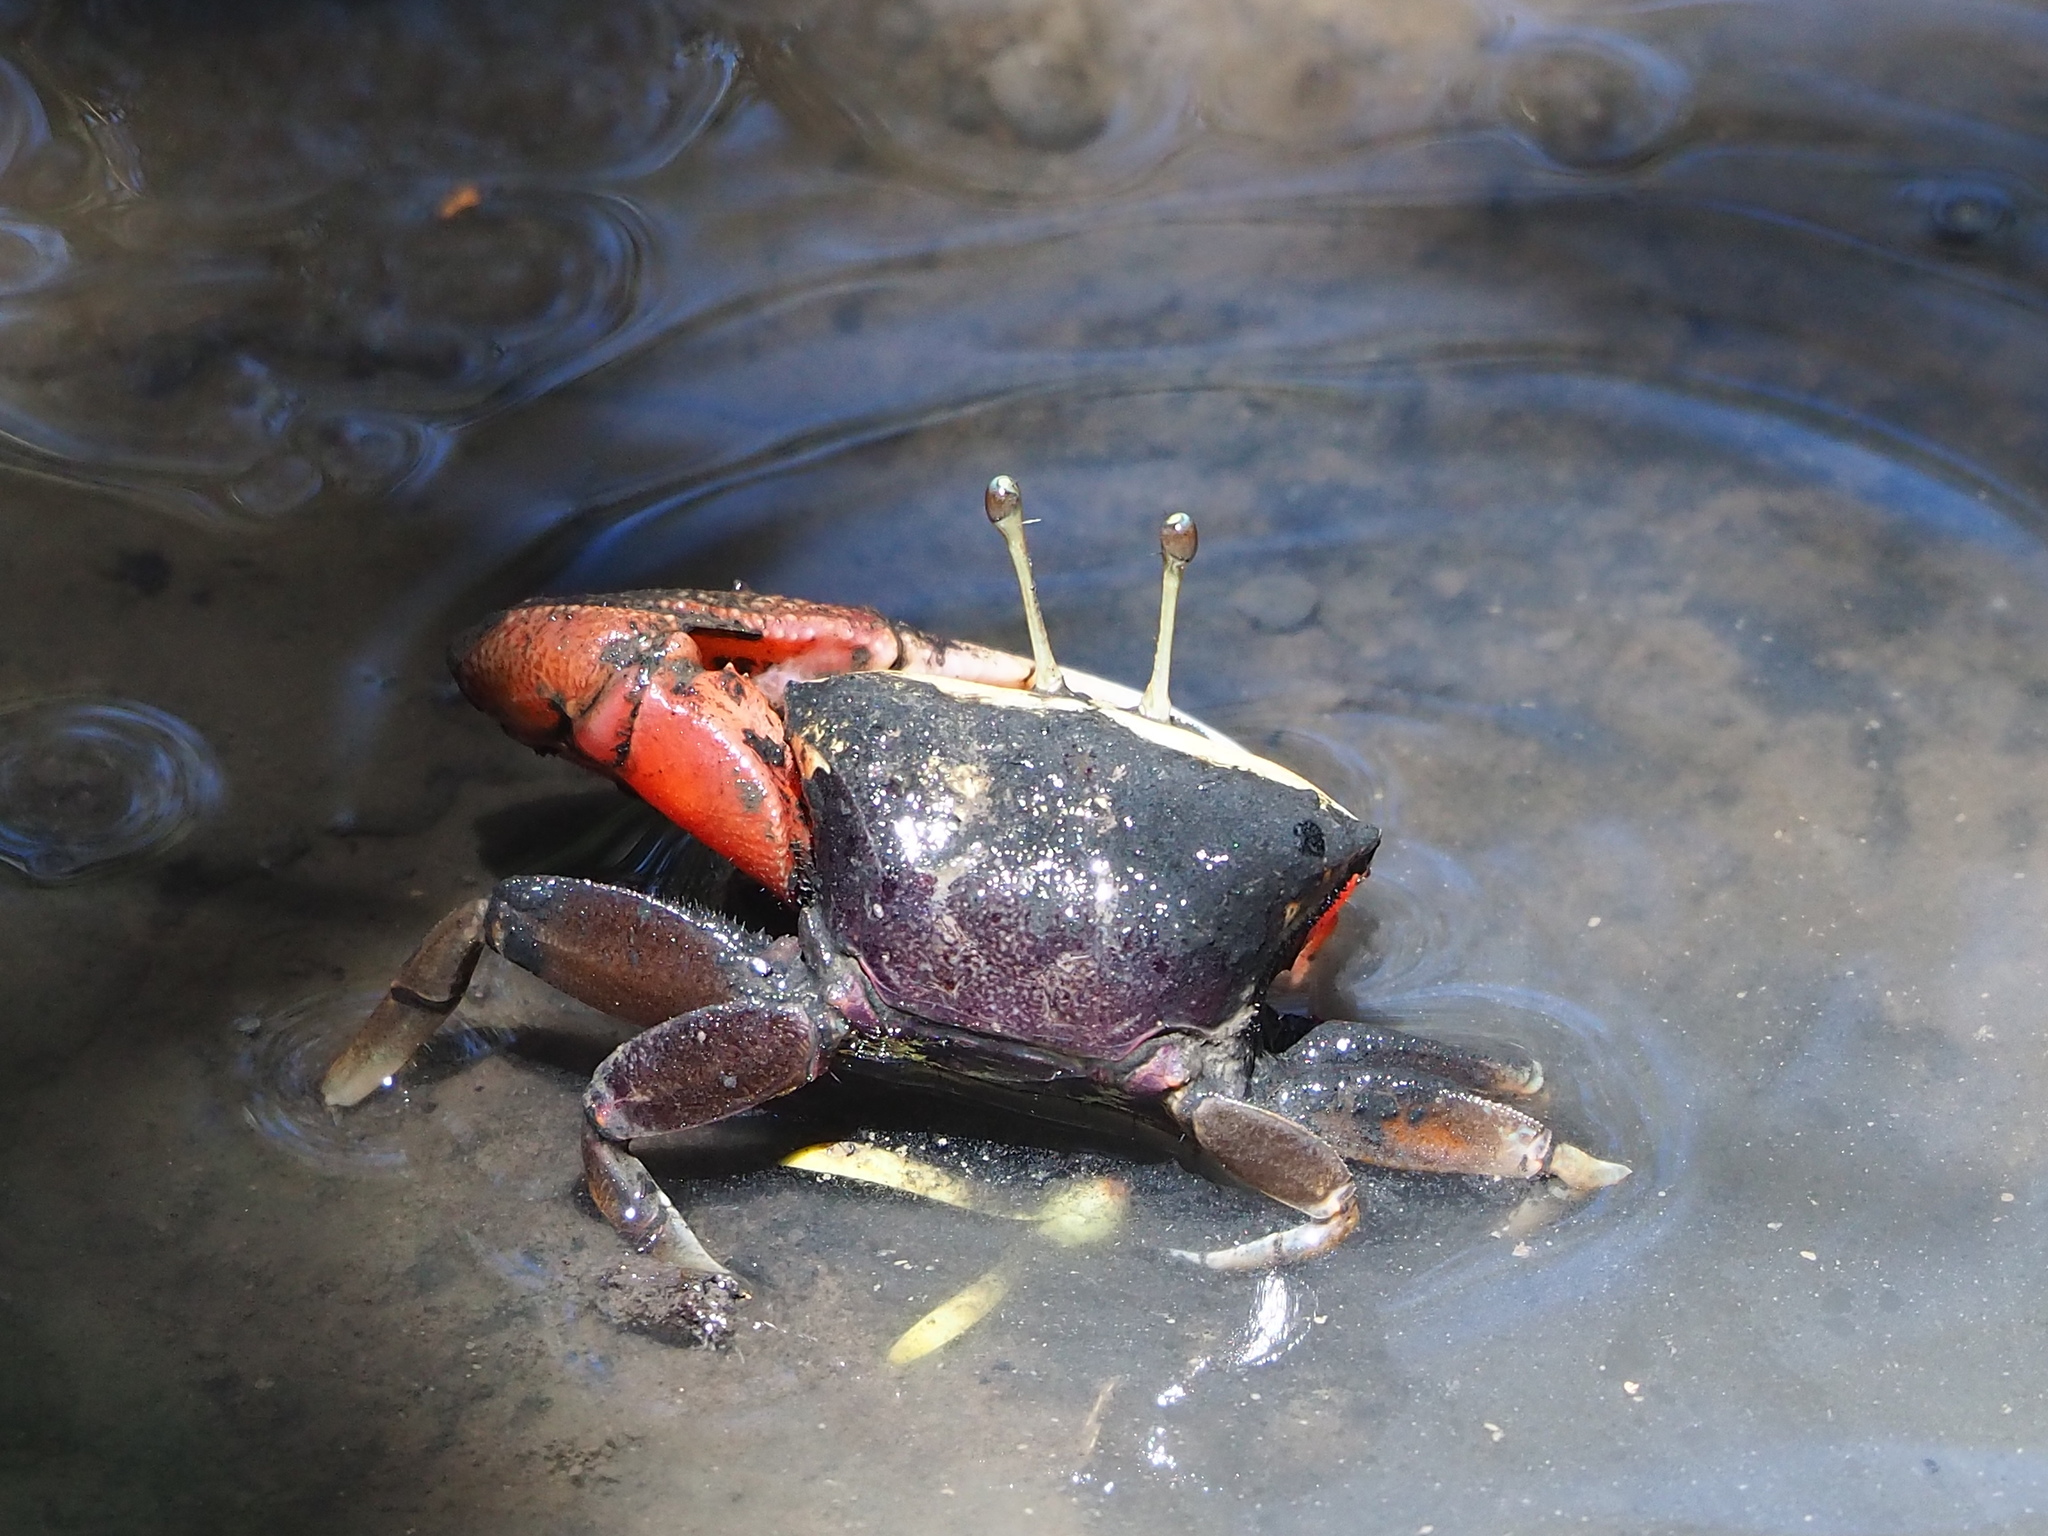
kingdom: Animalia
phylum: Arthropoda
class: Malacostraca
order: Decapoda
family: Ocypodidae
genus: Tubuca
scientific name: Tubuca arcuata
